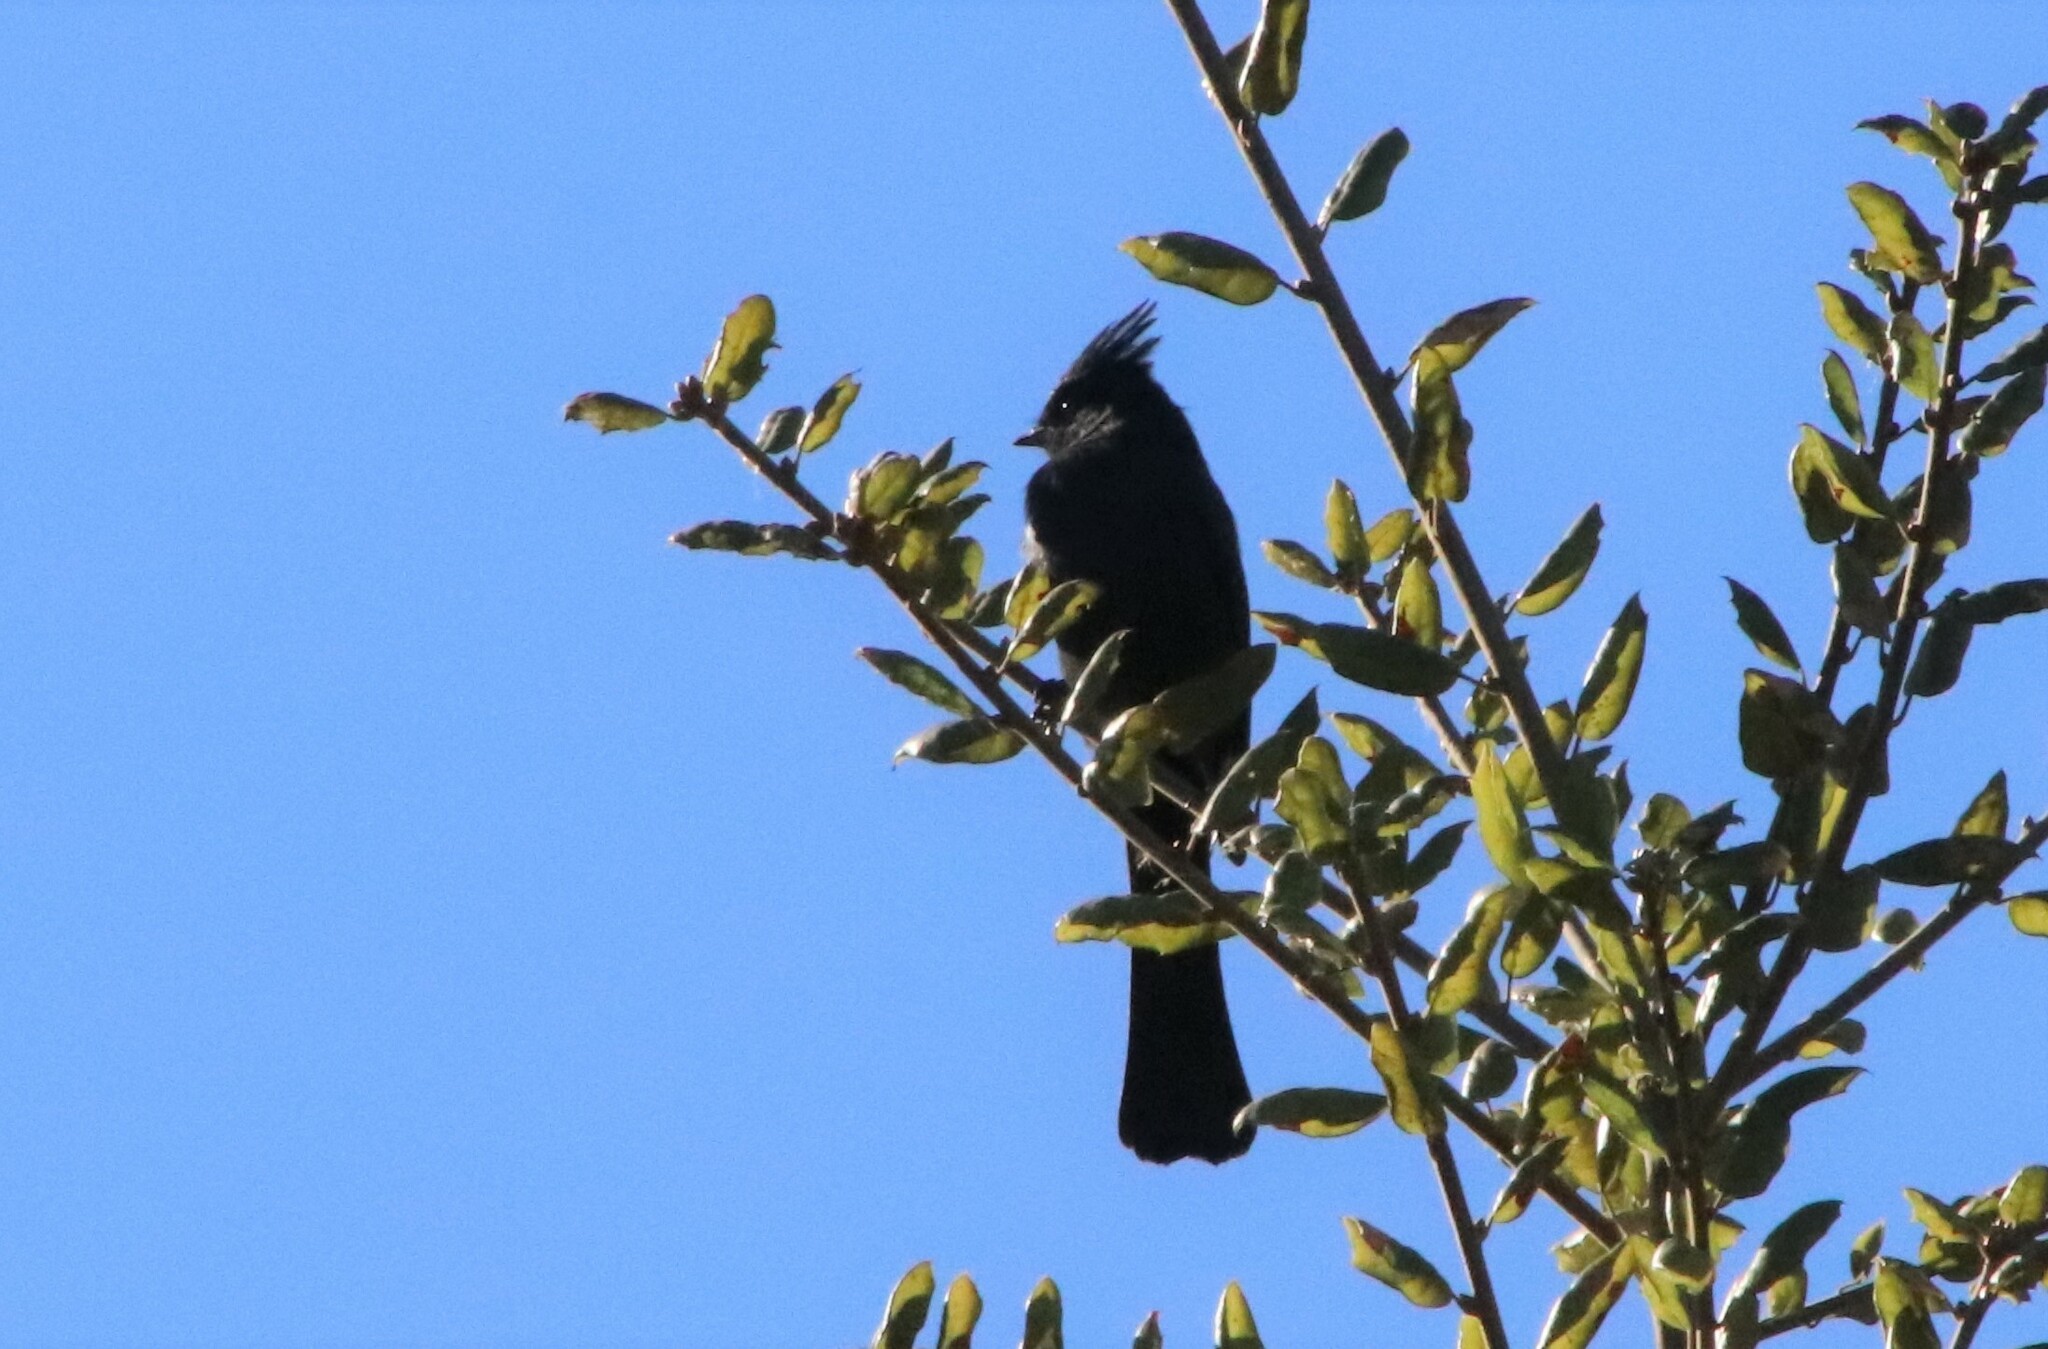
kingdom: Animalia
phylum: Chordata
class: Aves
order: Passeriformes
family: Ptilogonatidae
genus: Phainopepla
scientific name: Phainopepla nitens
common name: Phainopepla
